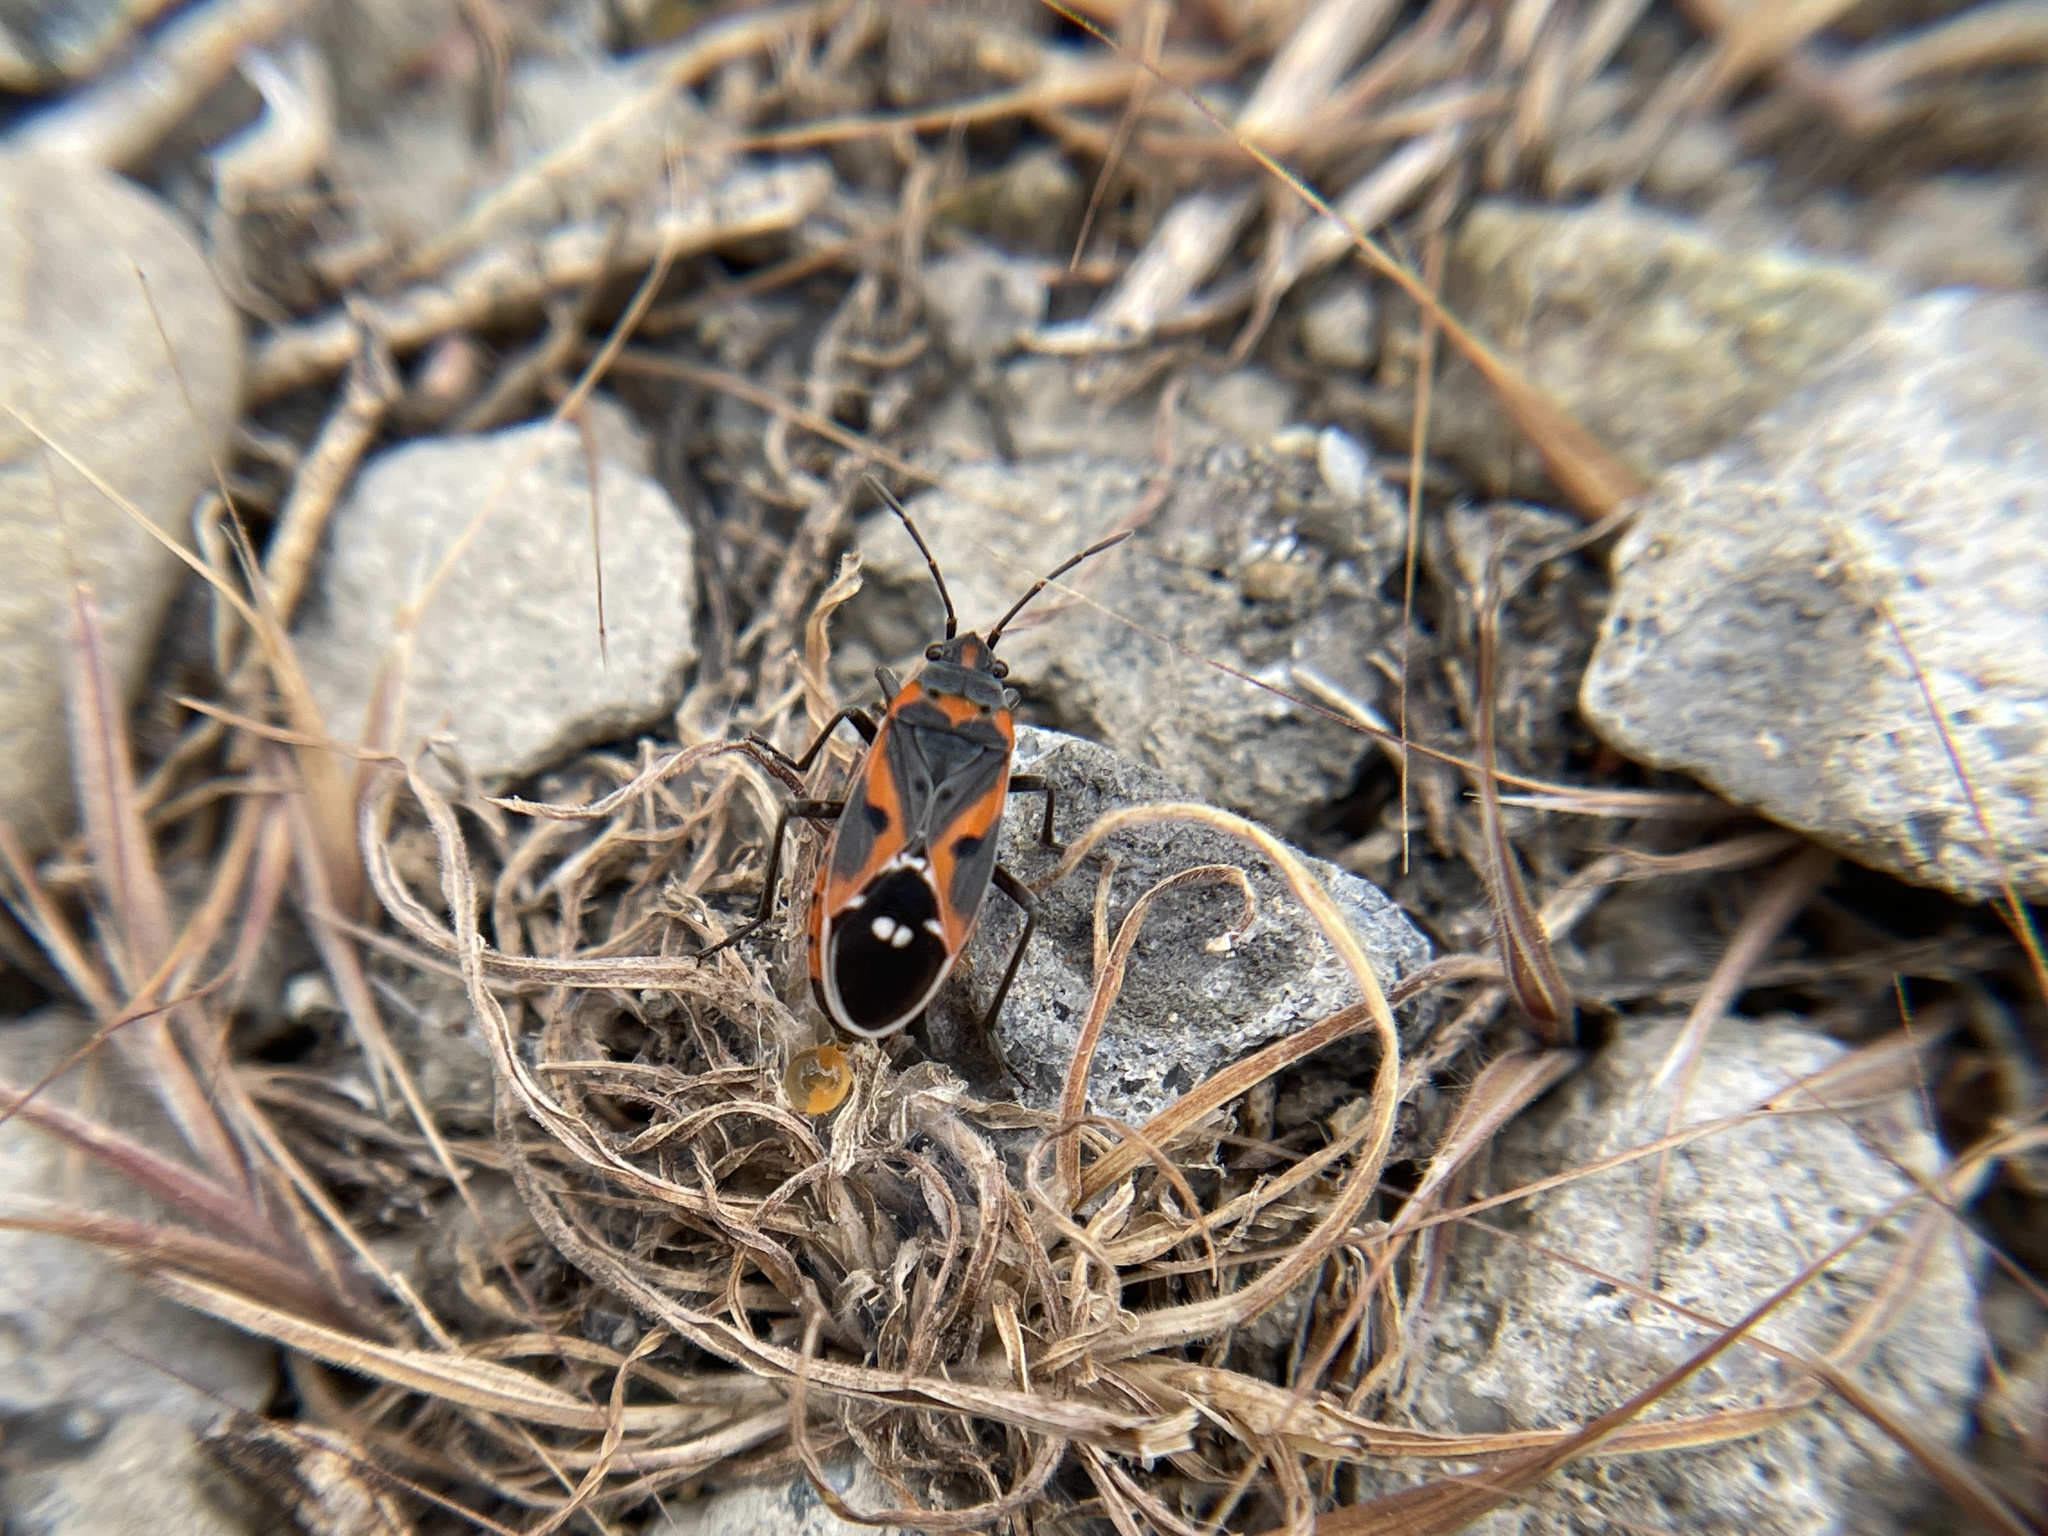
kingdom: Animalia
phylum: Arthropoda
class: Insecta
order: Hemiptera
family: Lygaeidae
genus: Lygaeus
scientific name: Lygaeus kalmii
